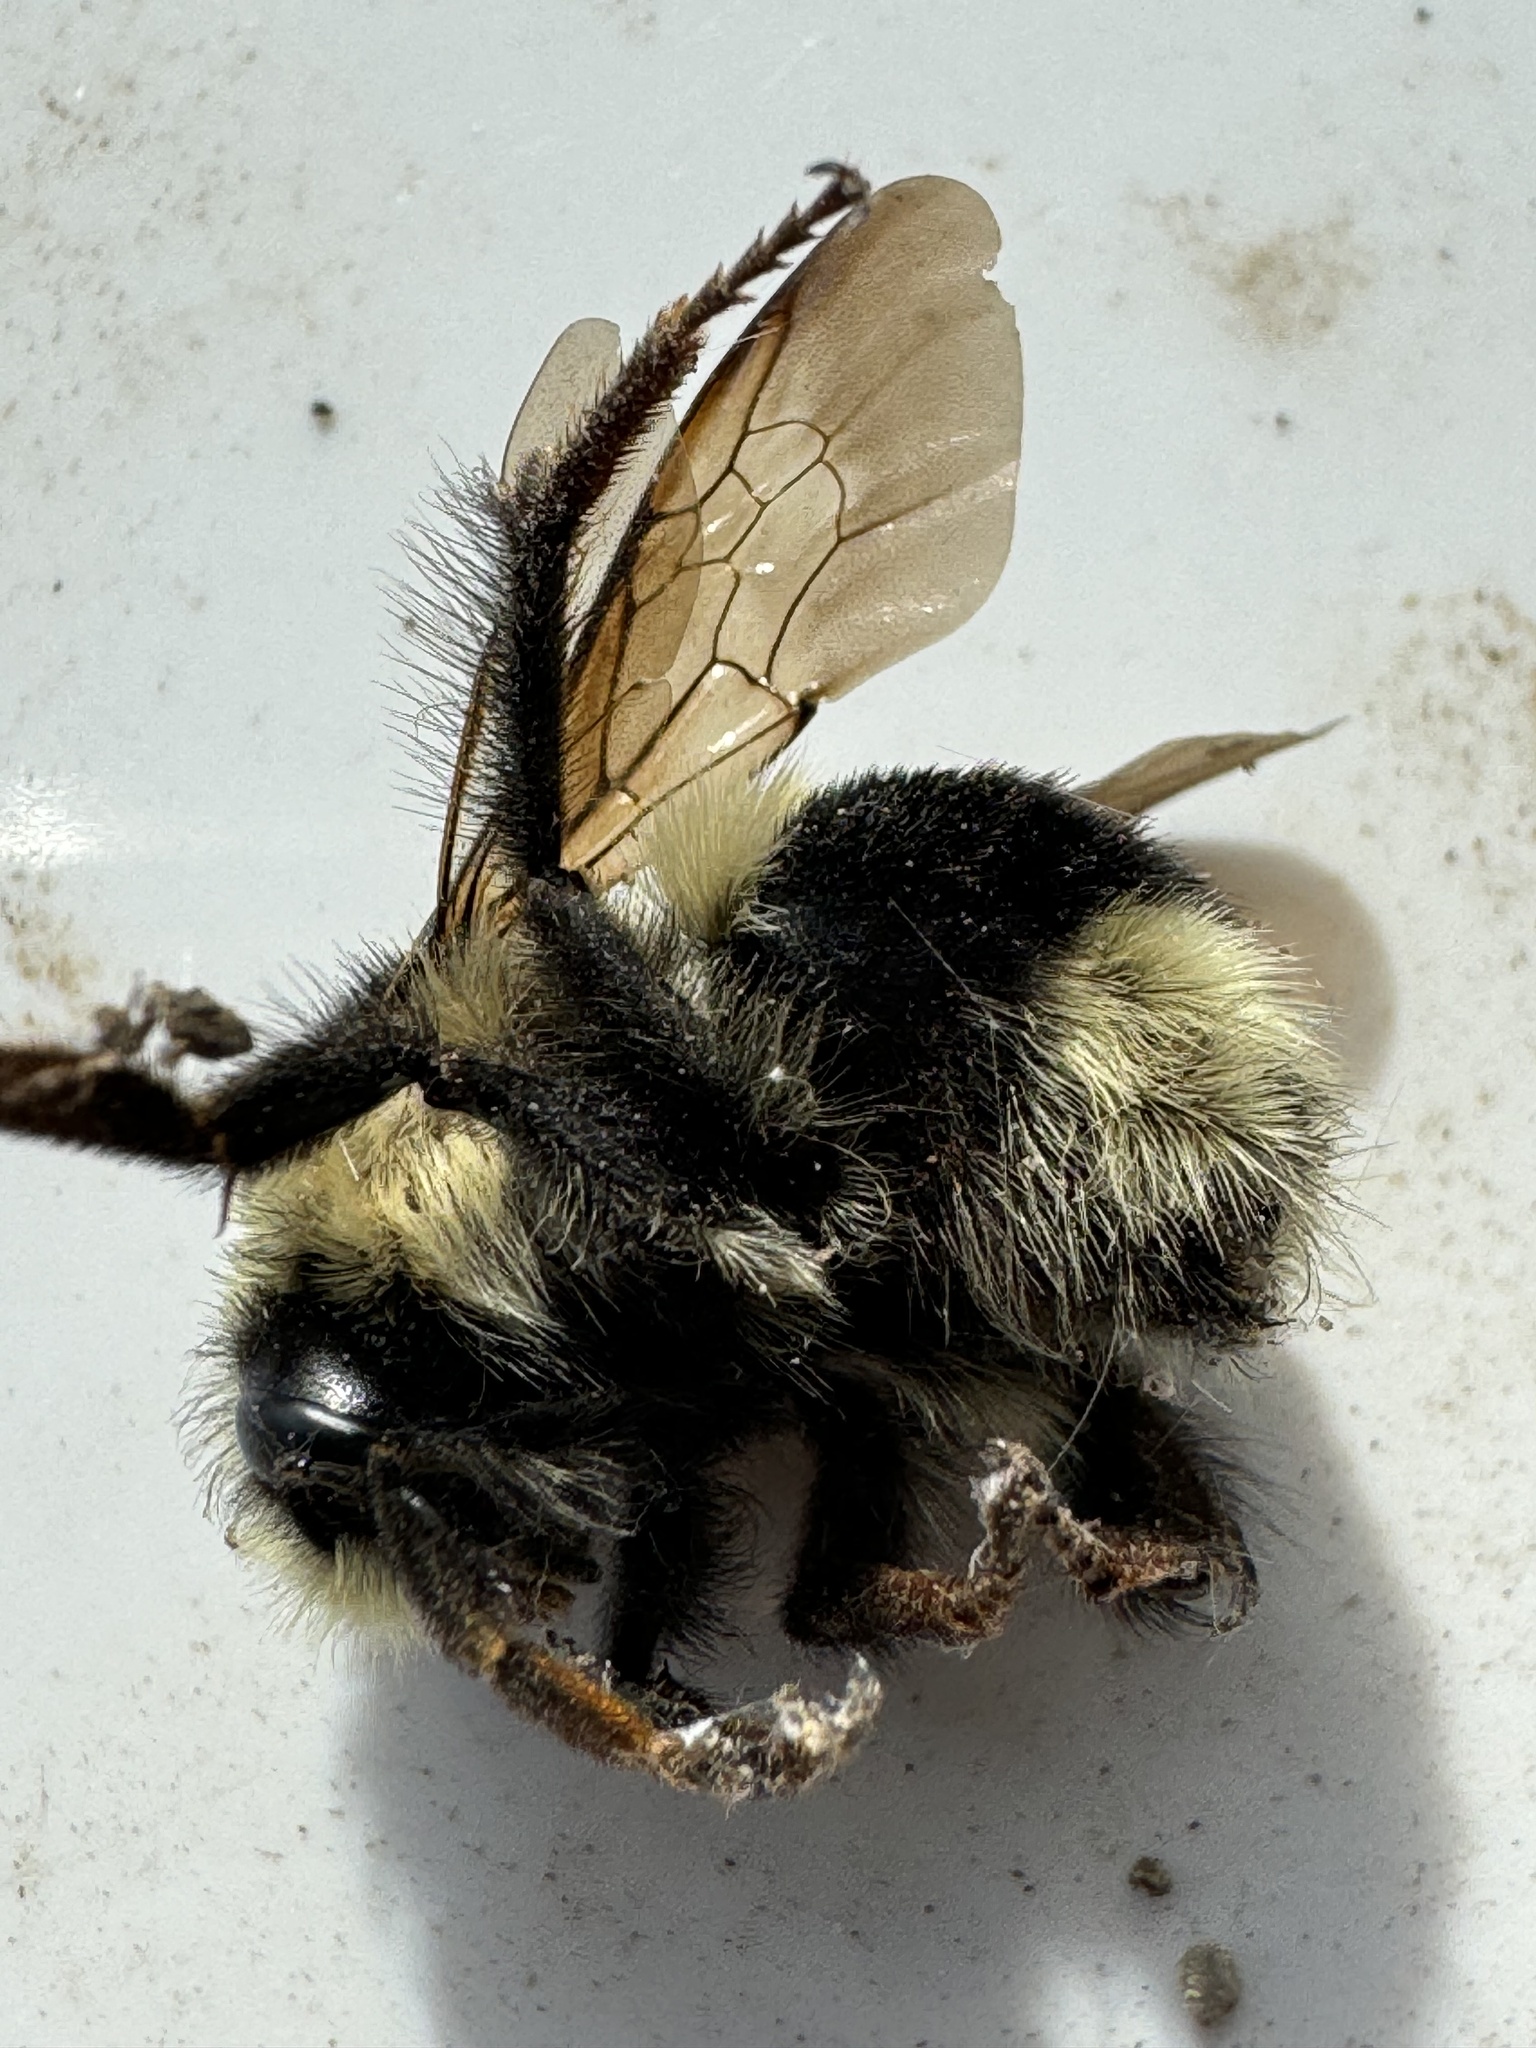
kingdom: Animalia
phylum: Arthropoda
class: Insecta
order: Hymenoptera
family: Apidae
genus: Bombus
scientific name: Bombus melanopygus
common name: Black tail bumble bee
